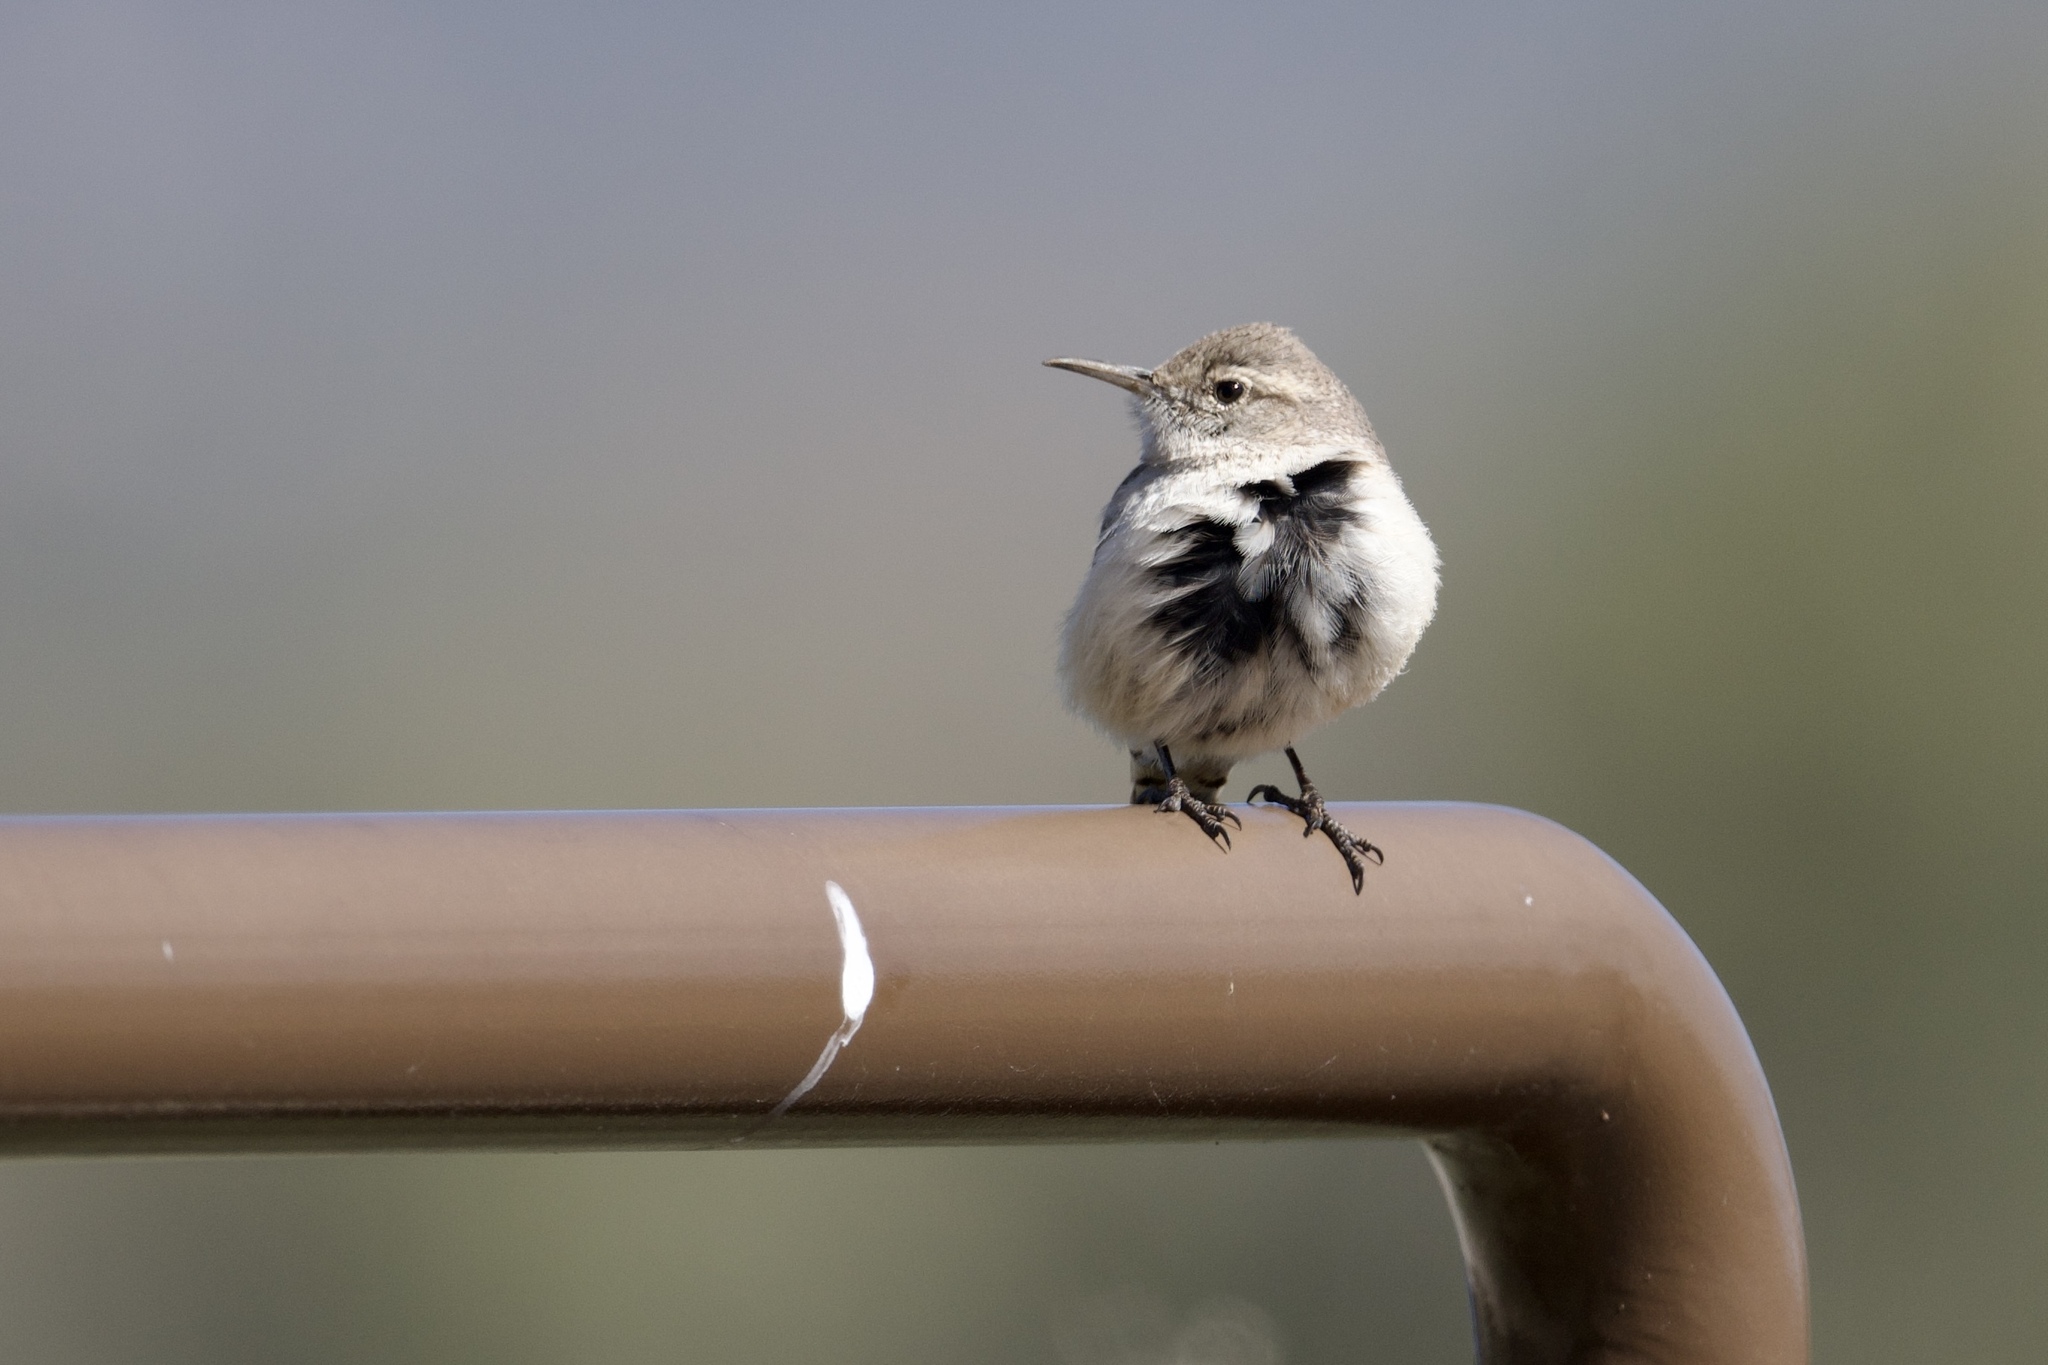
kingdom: Animalia
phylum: Chordata
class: Aves
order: Passeriformes
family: Troglodytidae
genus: Salpinctes
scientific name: Salpinctes obsoletus
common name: Rock wren
